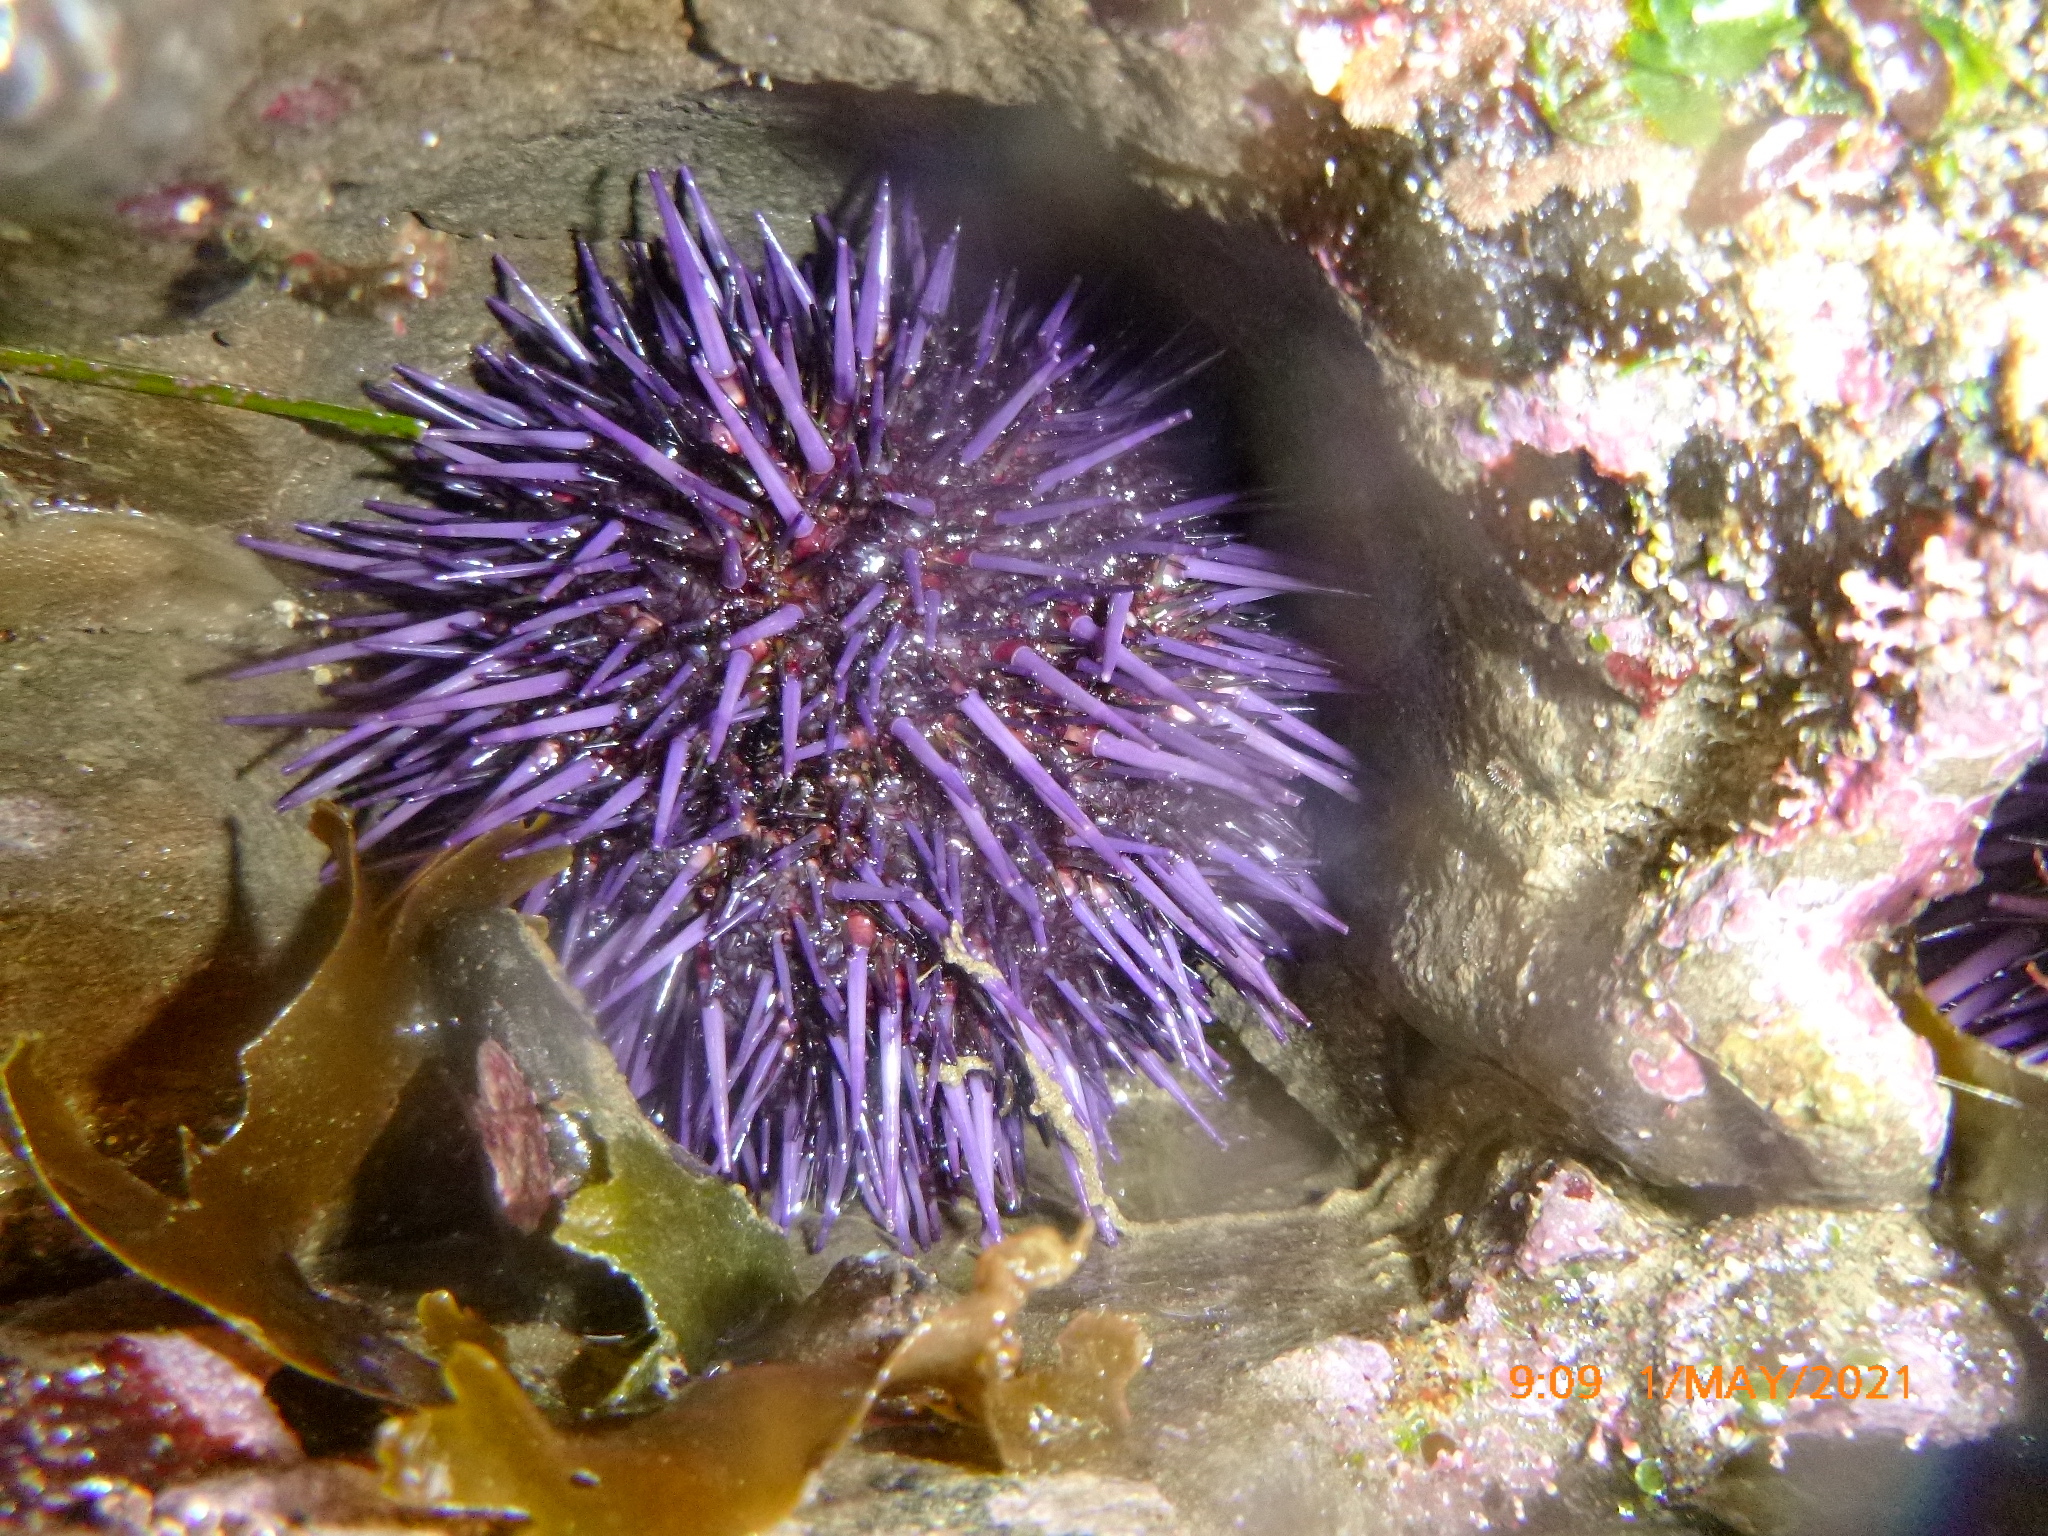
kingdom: Animalia
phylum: Echinodermata
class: Echinoidea
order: Camarodonta
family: Strongylocentrotidae
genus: Strongylocentrotus
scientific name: Strongylocentrotus purpuratus
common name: Purple sea urchin
